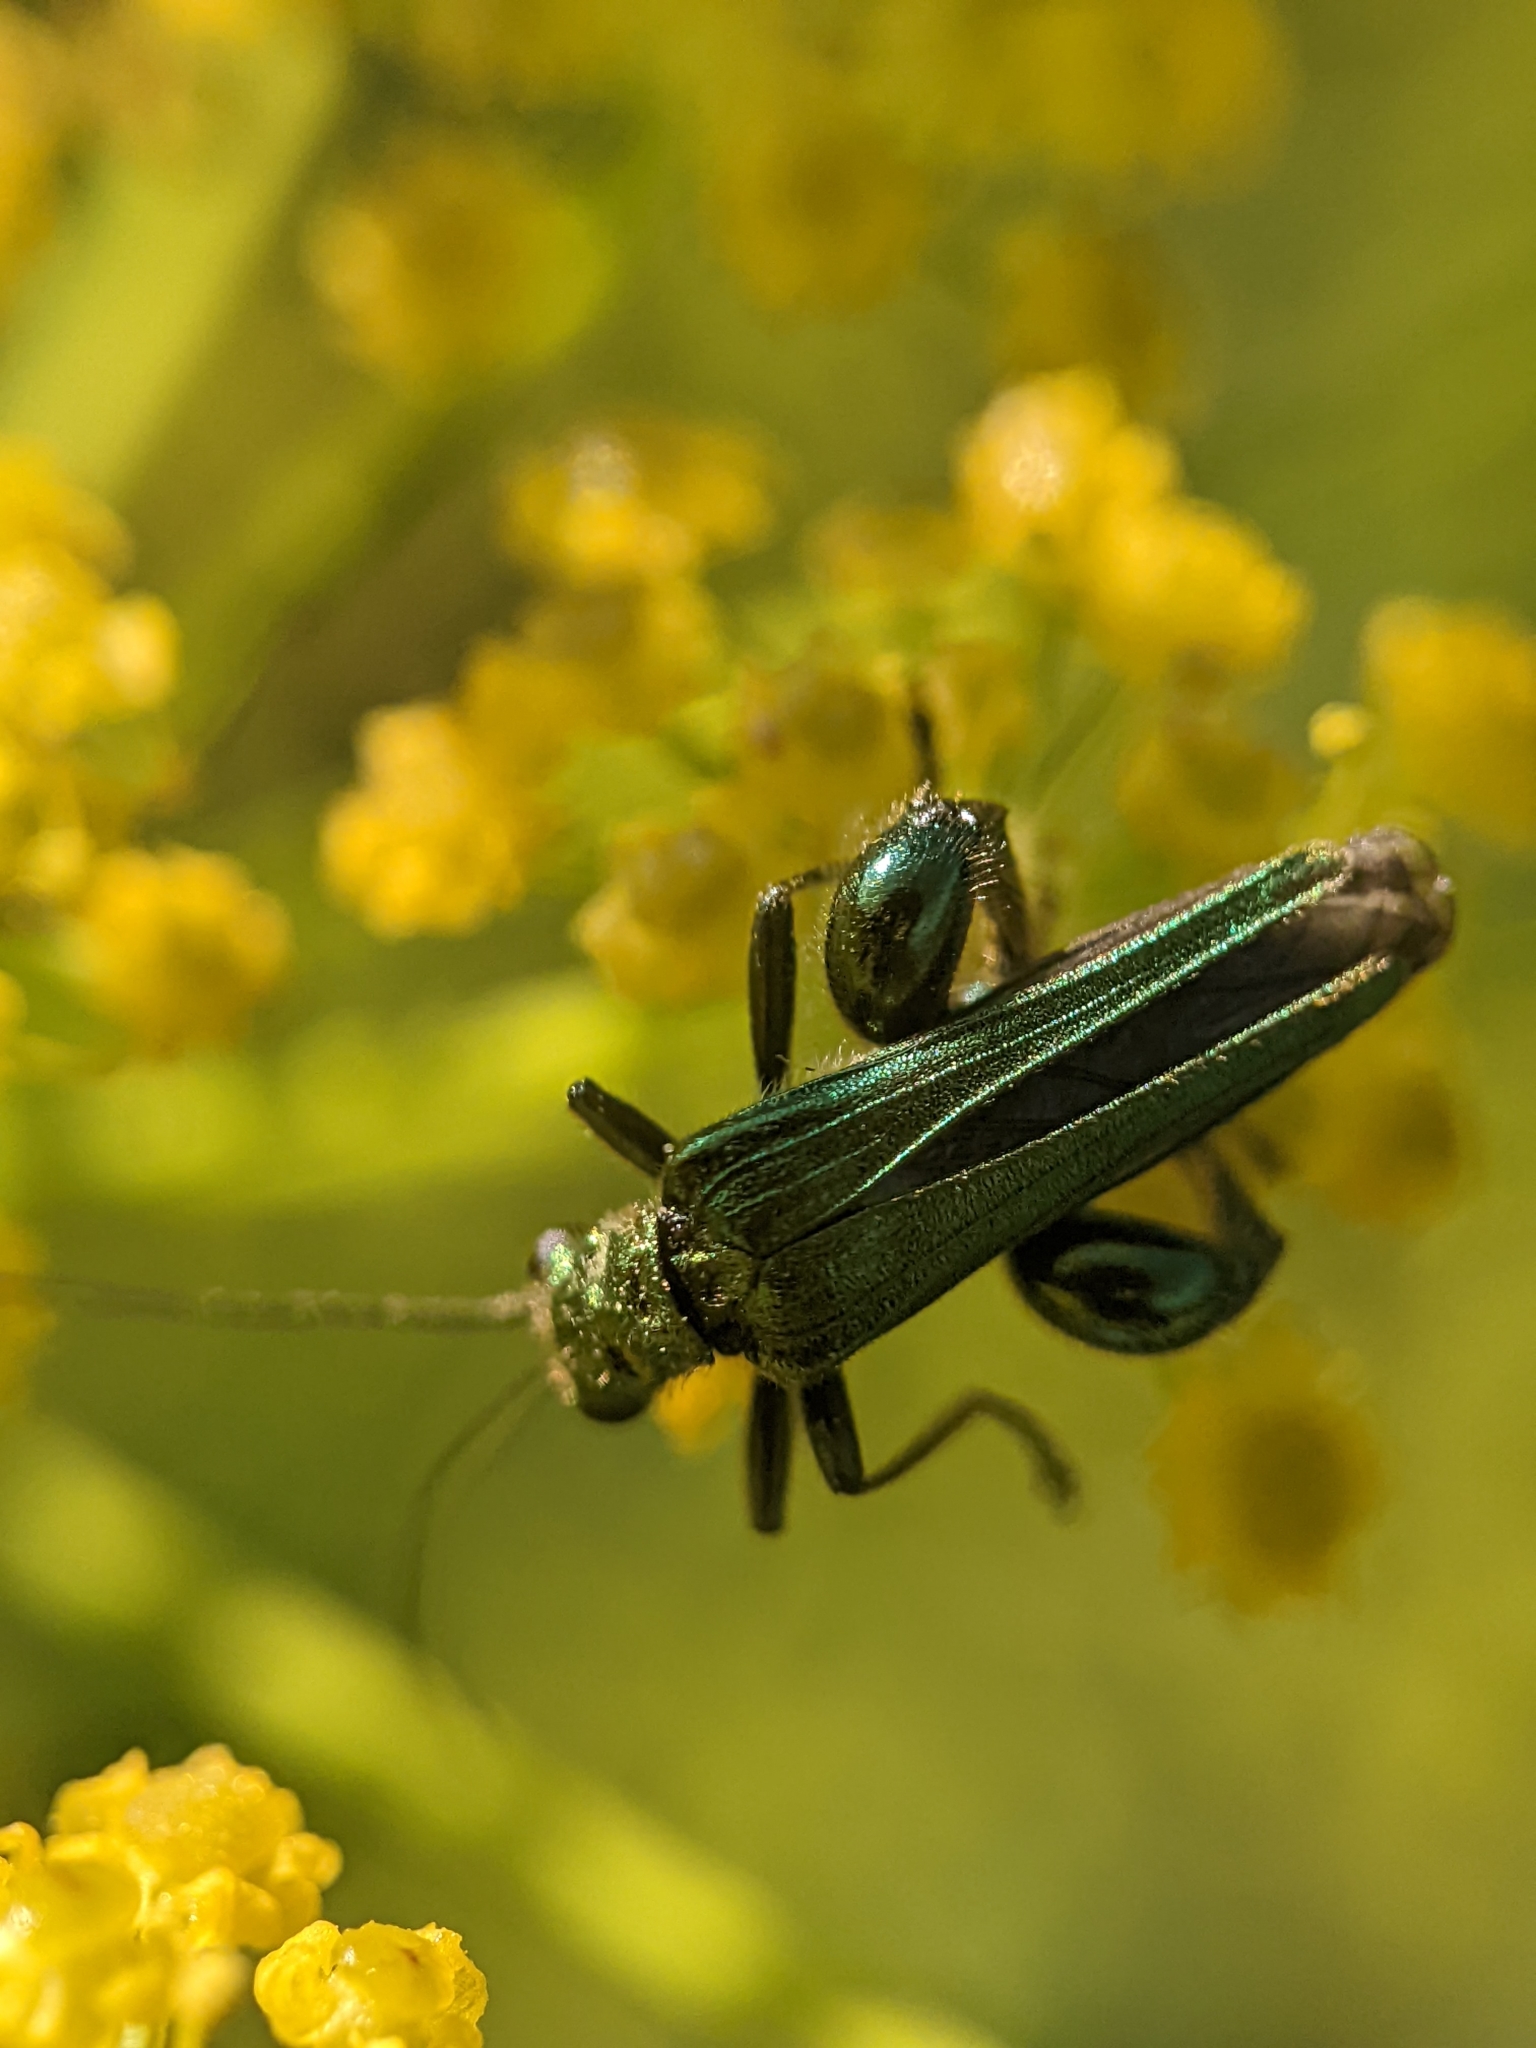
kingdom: Animalia
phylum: Arthropoda
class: Insecta
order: Coleoptera
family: Oedemeridae
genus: Oedemera
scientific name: Oedemera nobilis
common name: Swollen-thighed beetle
